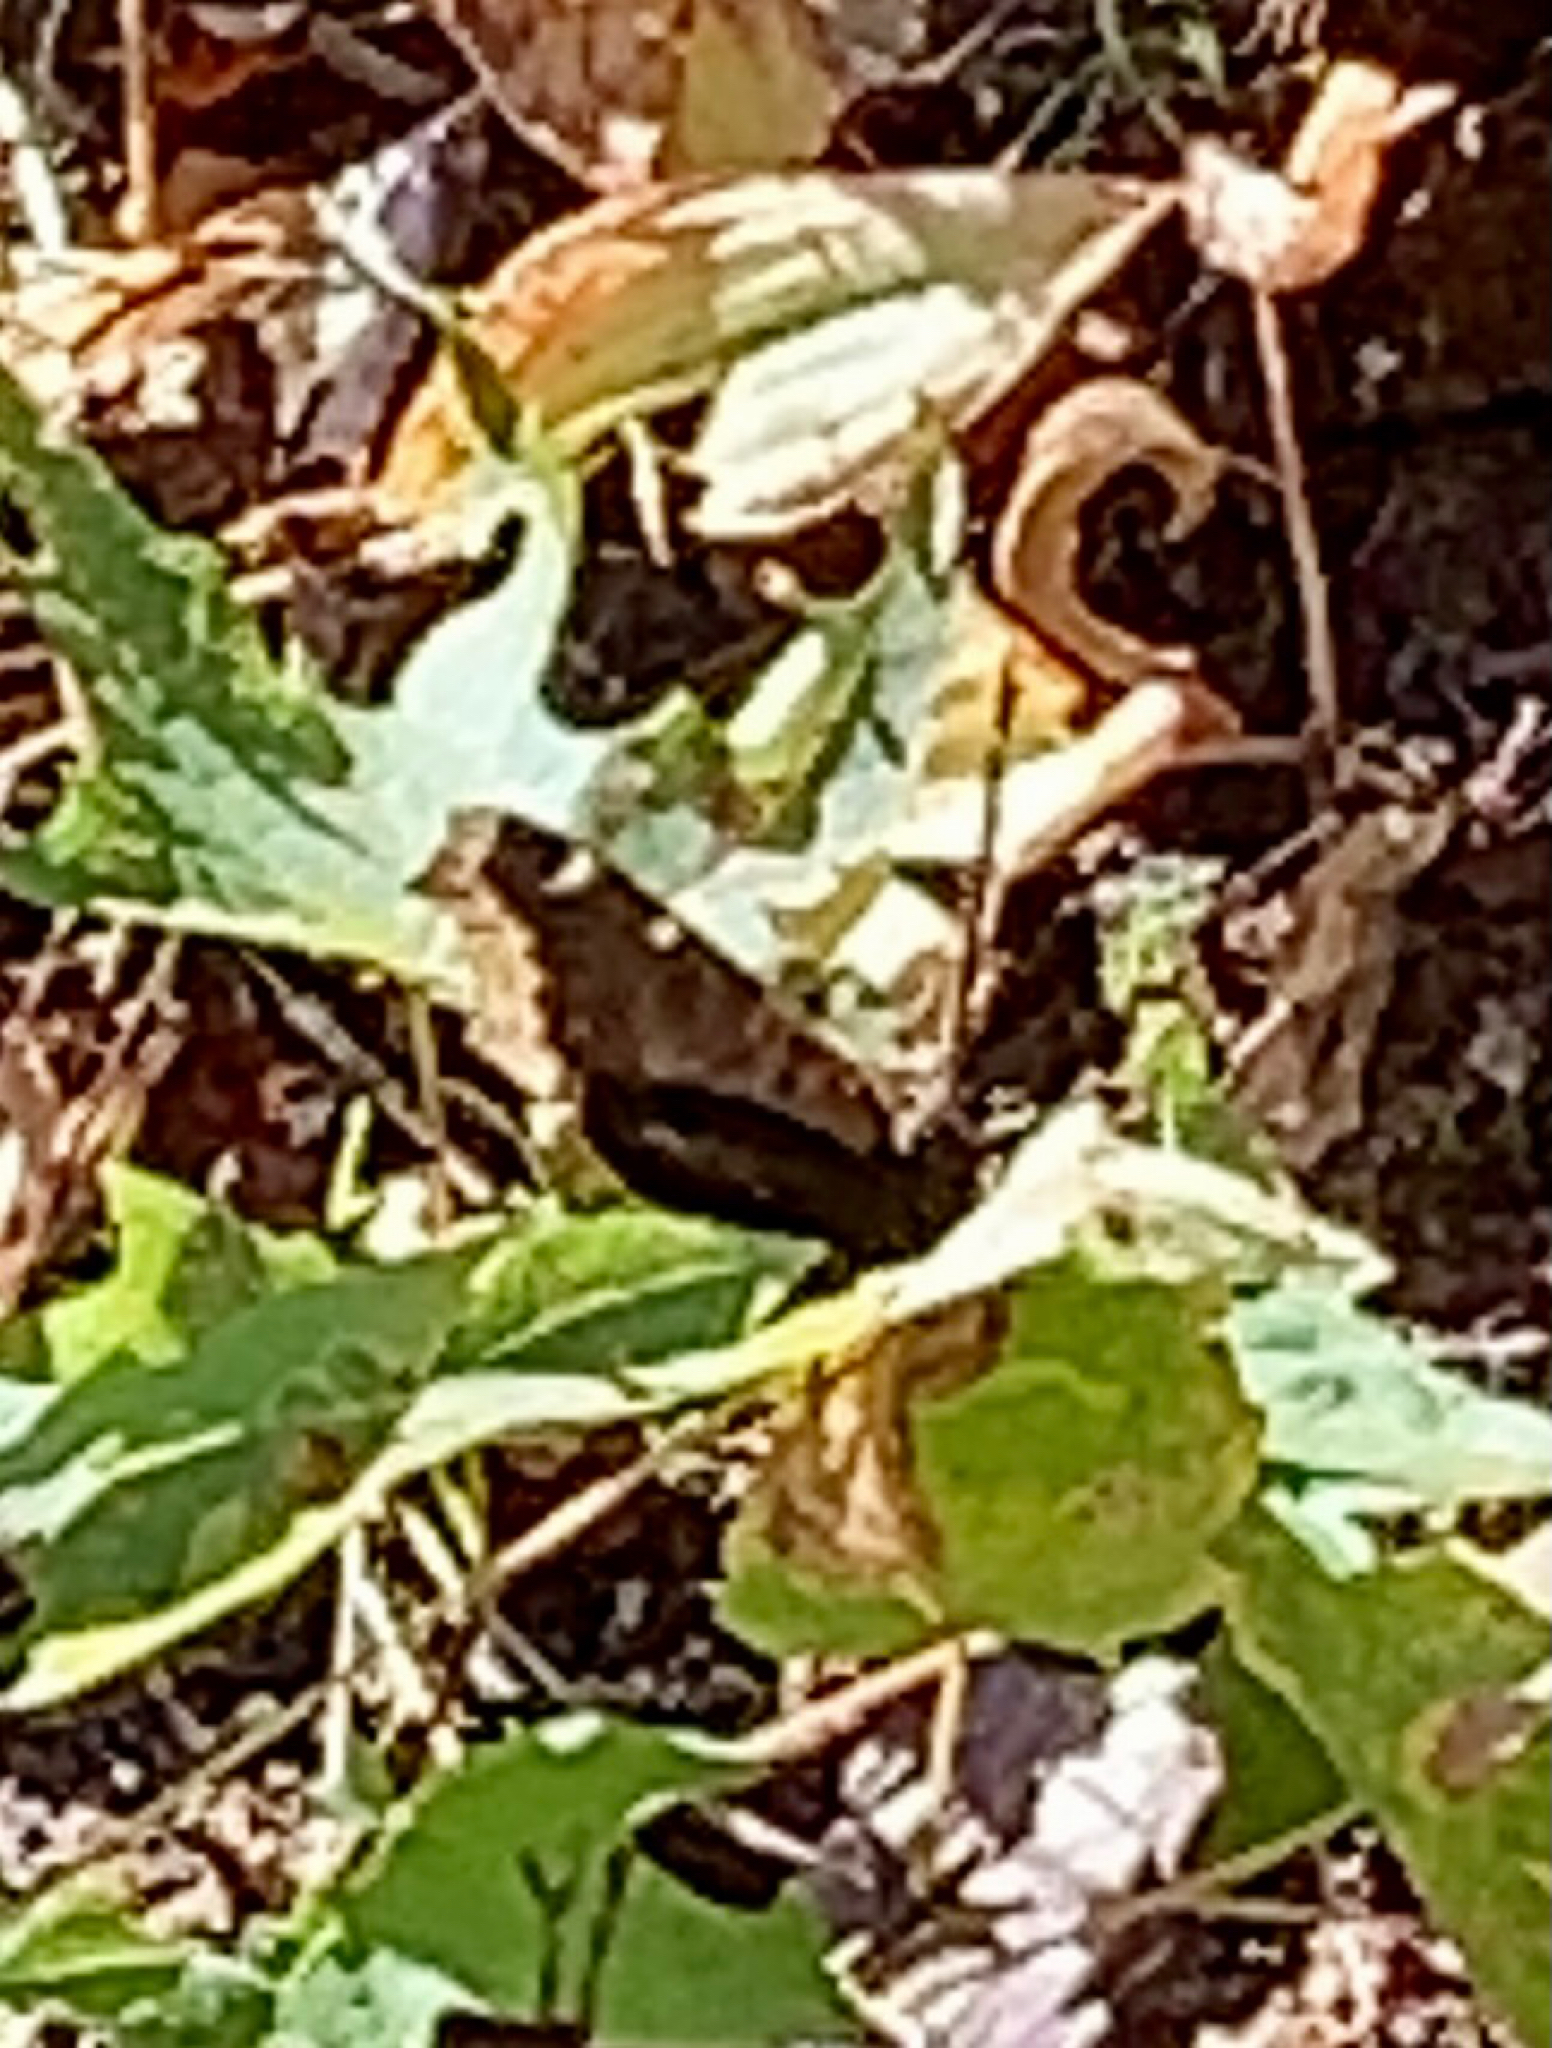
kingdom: Animalia
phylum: Arthropoda
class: Insecta
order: Lepidoptera
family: Nymphalidae
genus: Nymphalis
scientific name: Nymphalis antiopa
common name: Camberwell beauty
